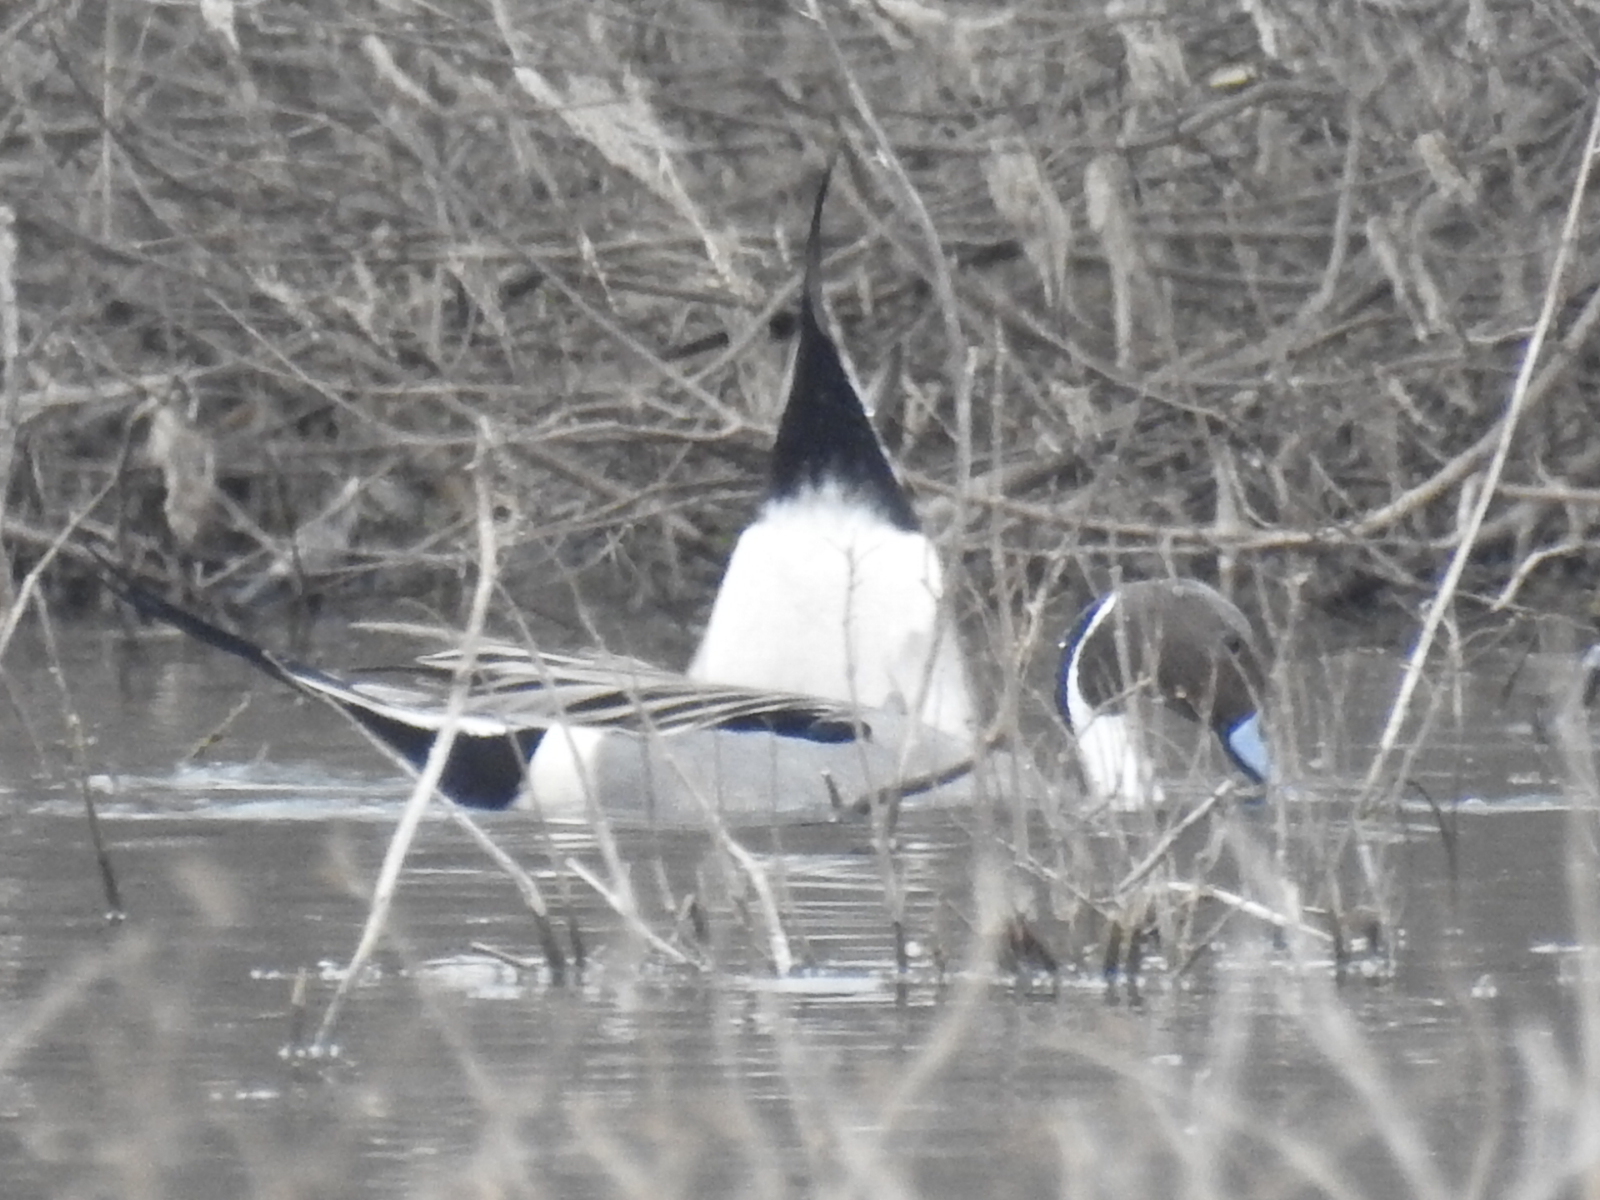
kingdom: Animalia
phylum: Chordata
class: Aves
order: Anseriformes
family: Anatidae
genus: Anas
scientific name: Anas acuta
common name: Northern pintail
